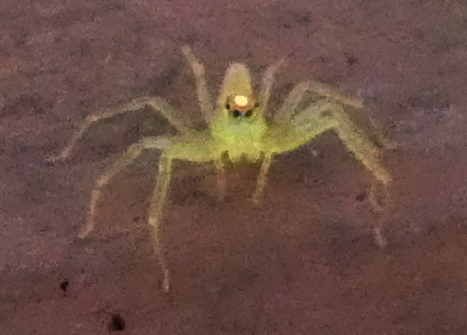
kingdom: Animalia
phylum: Arthropoda
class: Arachnida
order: Araneae
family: Salticidae
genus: Lyssomanes
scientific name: Lyssomanes
